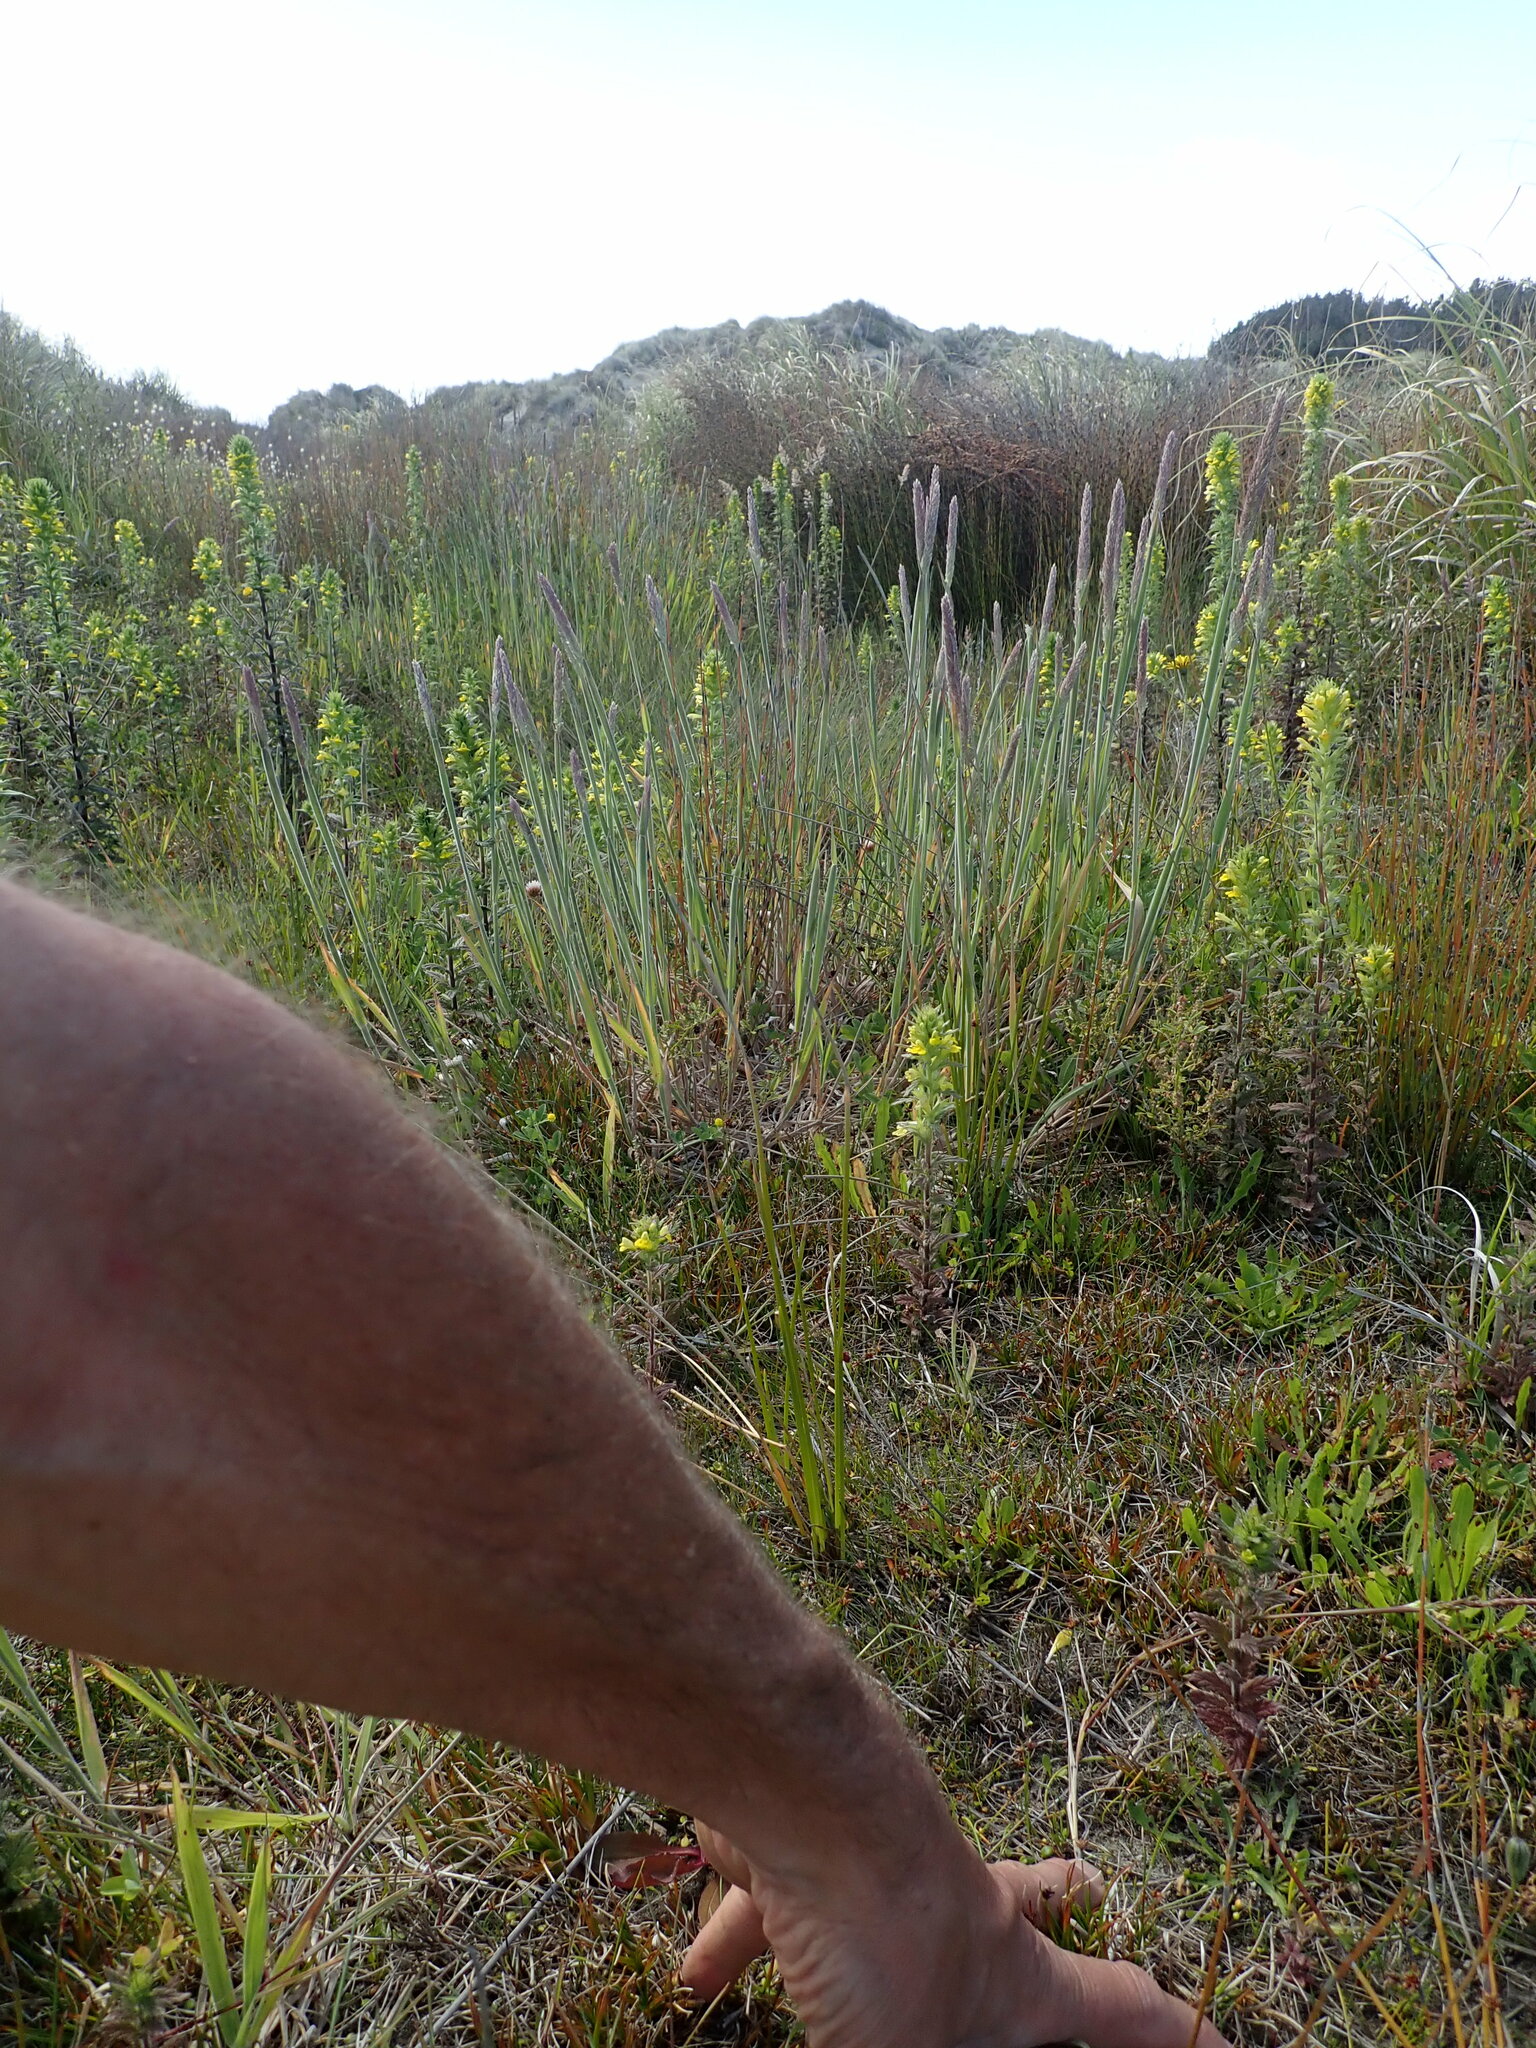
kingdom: Plantae
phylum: Tracheophyta
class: Liliopsida
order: Poales
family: Juncaceae
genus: Juncus
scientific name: Juncus caespiticius
